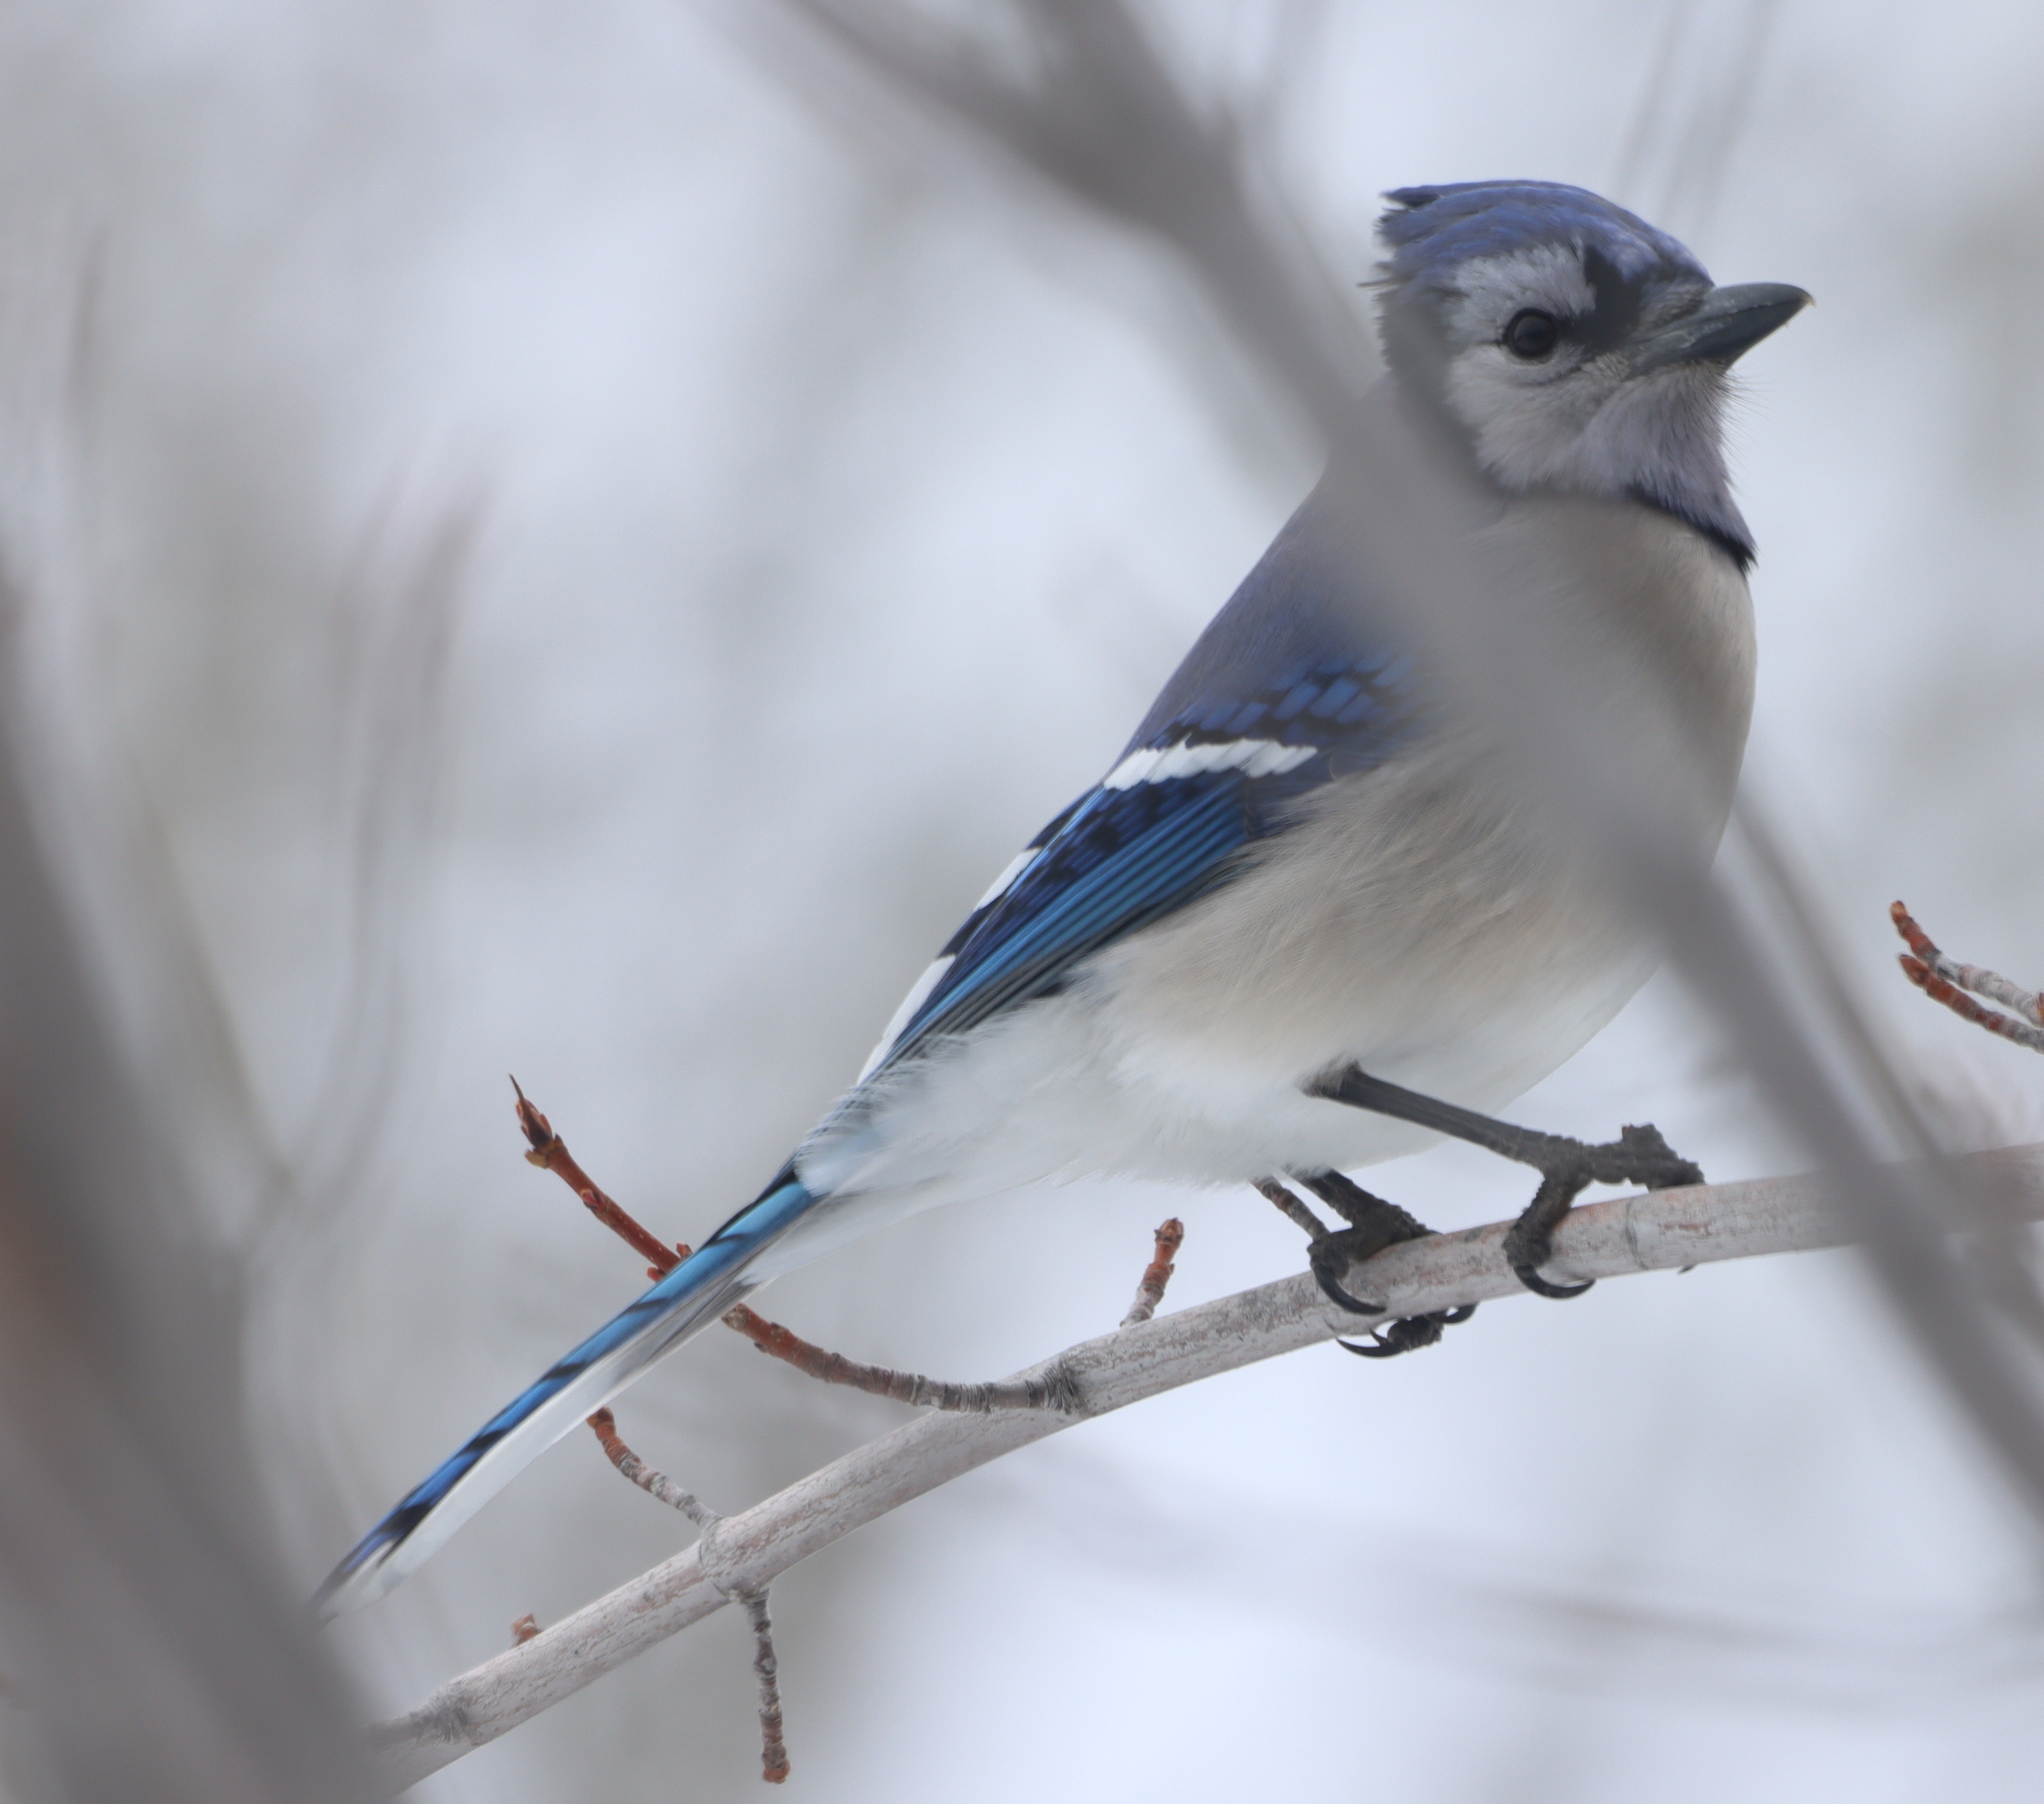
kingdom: Animalia
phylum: Chordata
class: Aves
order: Passeriformes
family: Corvidae
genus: Cyanocitta
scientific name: Cyanocitta cristata
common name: Blue jay
